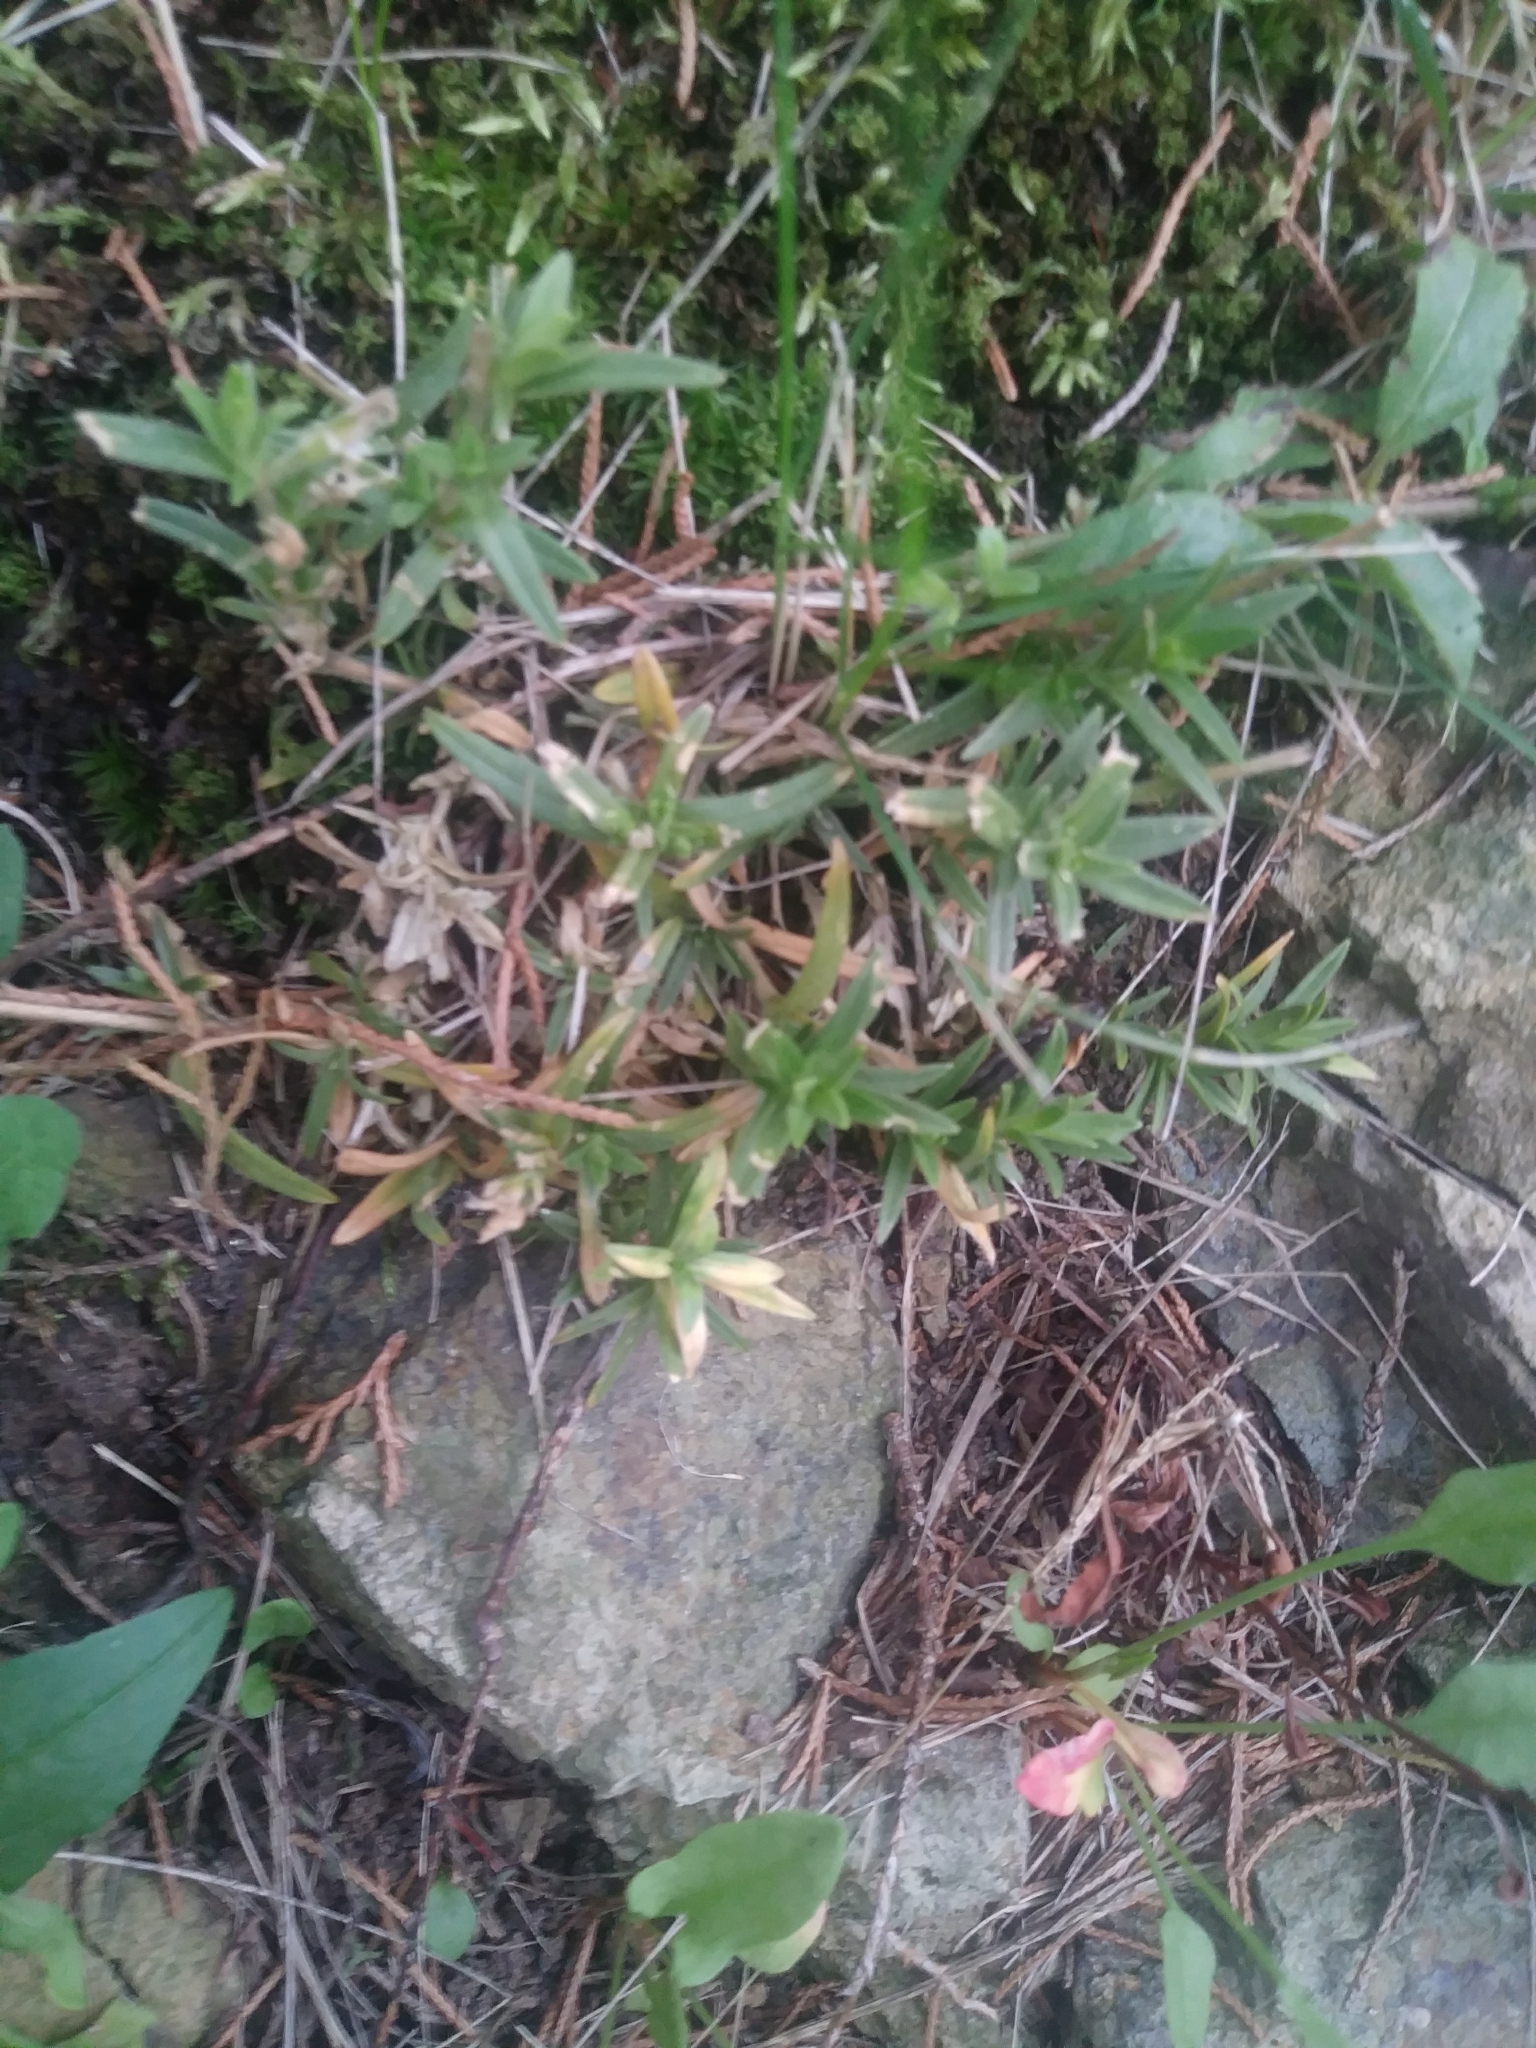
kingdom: Plantae
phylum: Tracheophyta
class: Magnoliopsida
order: Caryophyllales
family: Caryophyllaceae
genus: Cerastium
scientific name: Cerastium velutinum
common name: Barren chickweed
